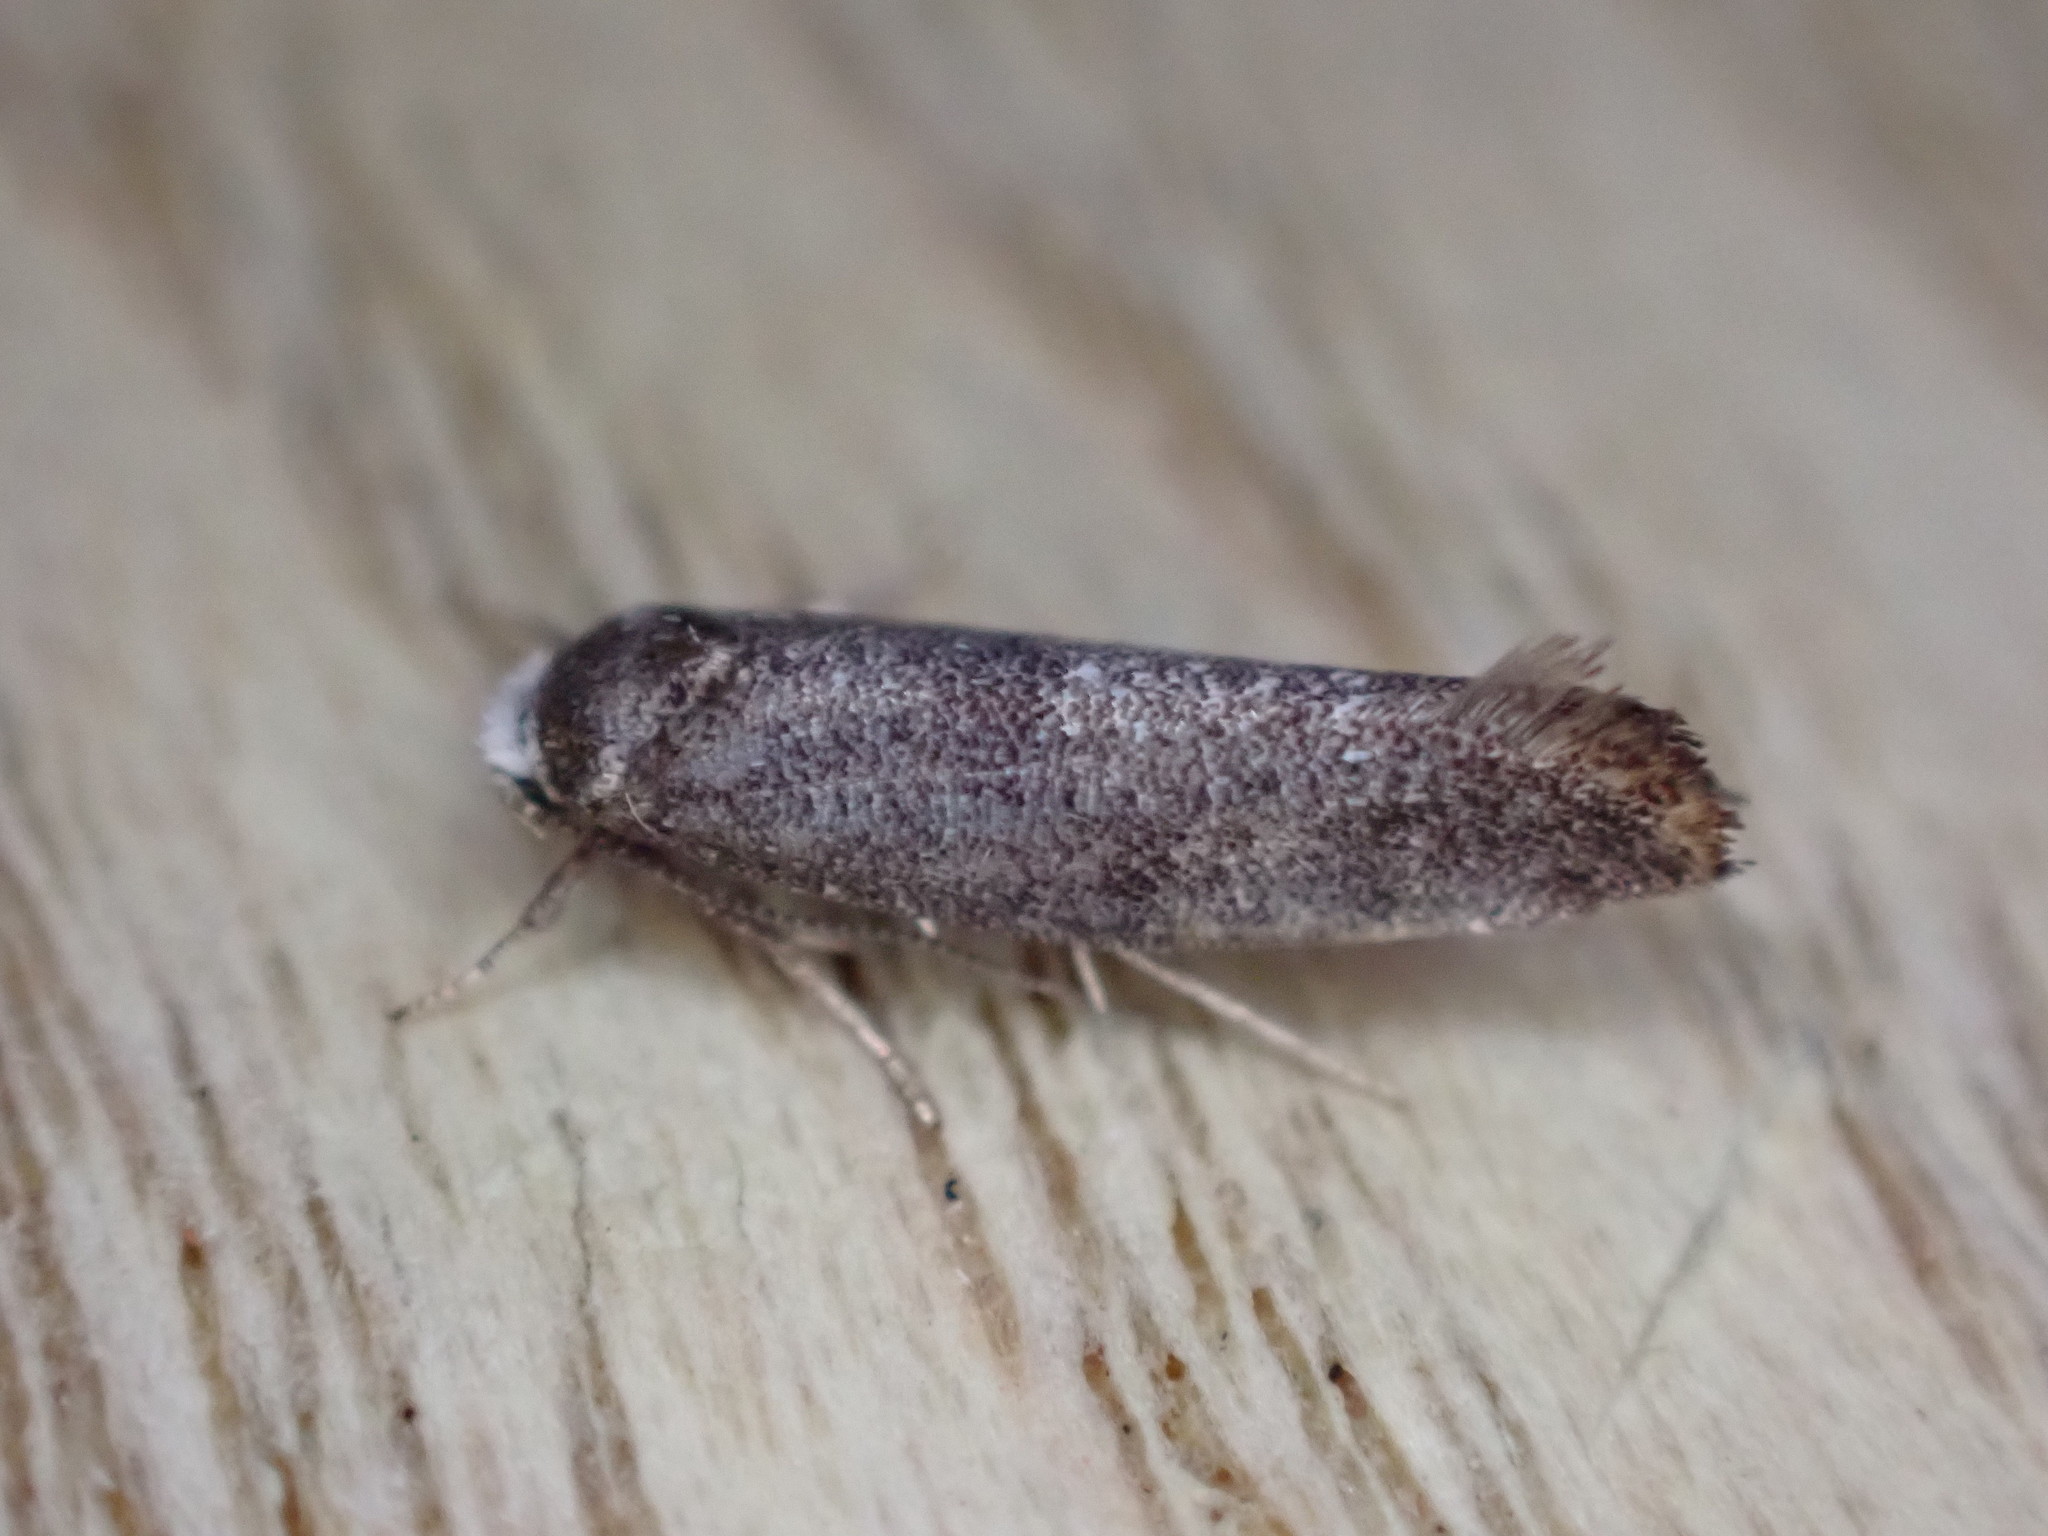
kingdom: Animalia
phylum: Arthropoda
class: Insecta
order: Lepidoptera
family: Yponomeutidae
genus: Swammerdamia
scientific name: Swammerdamia pyrella
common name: Little ermine moth
